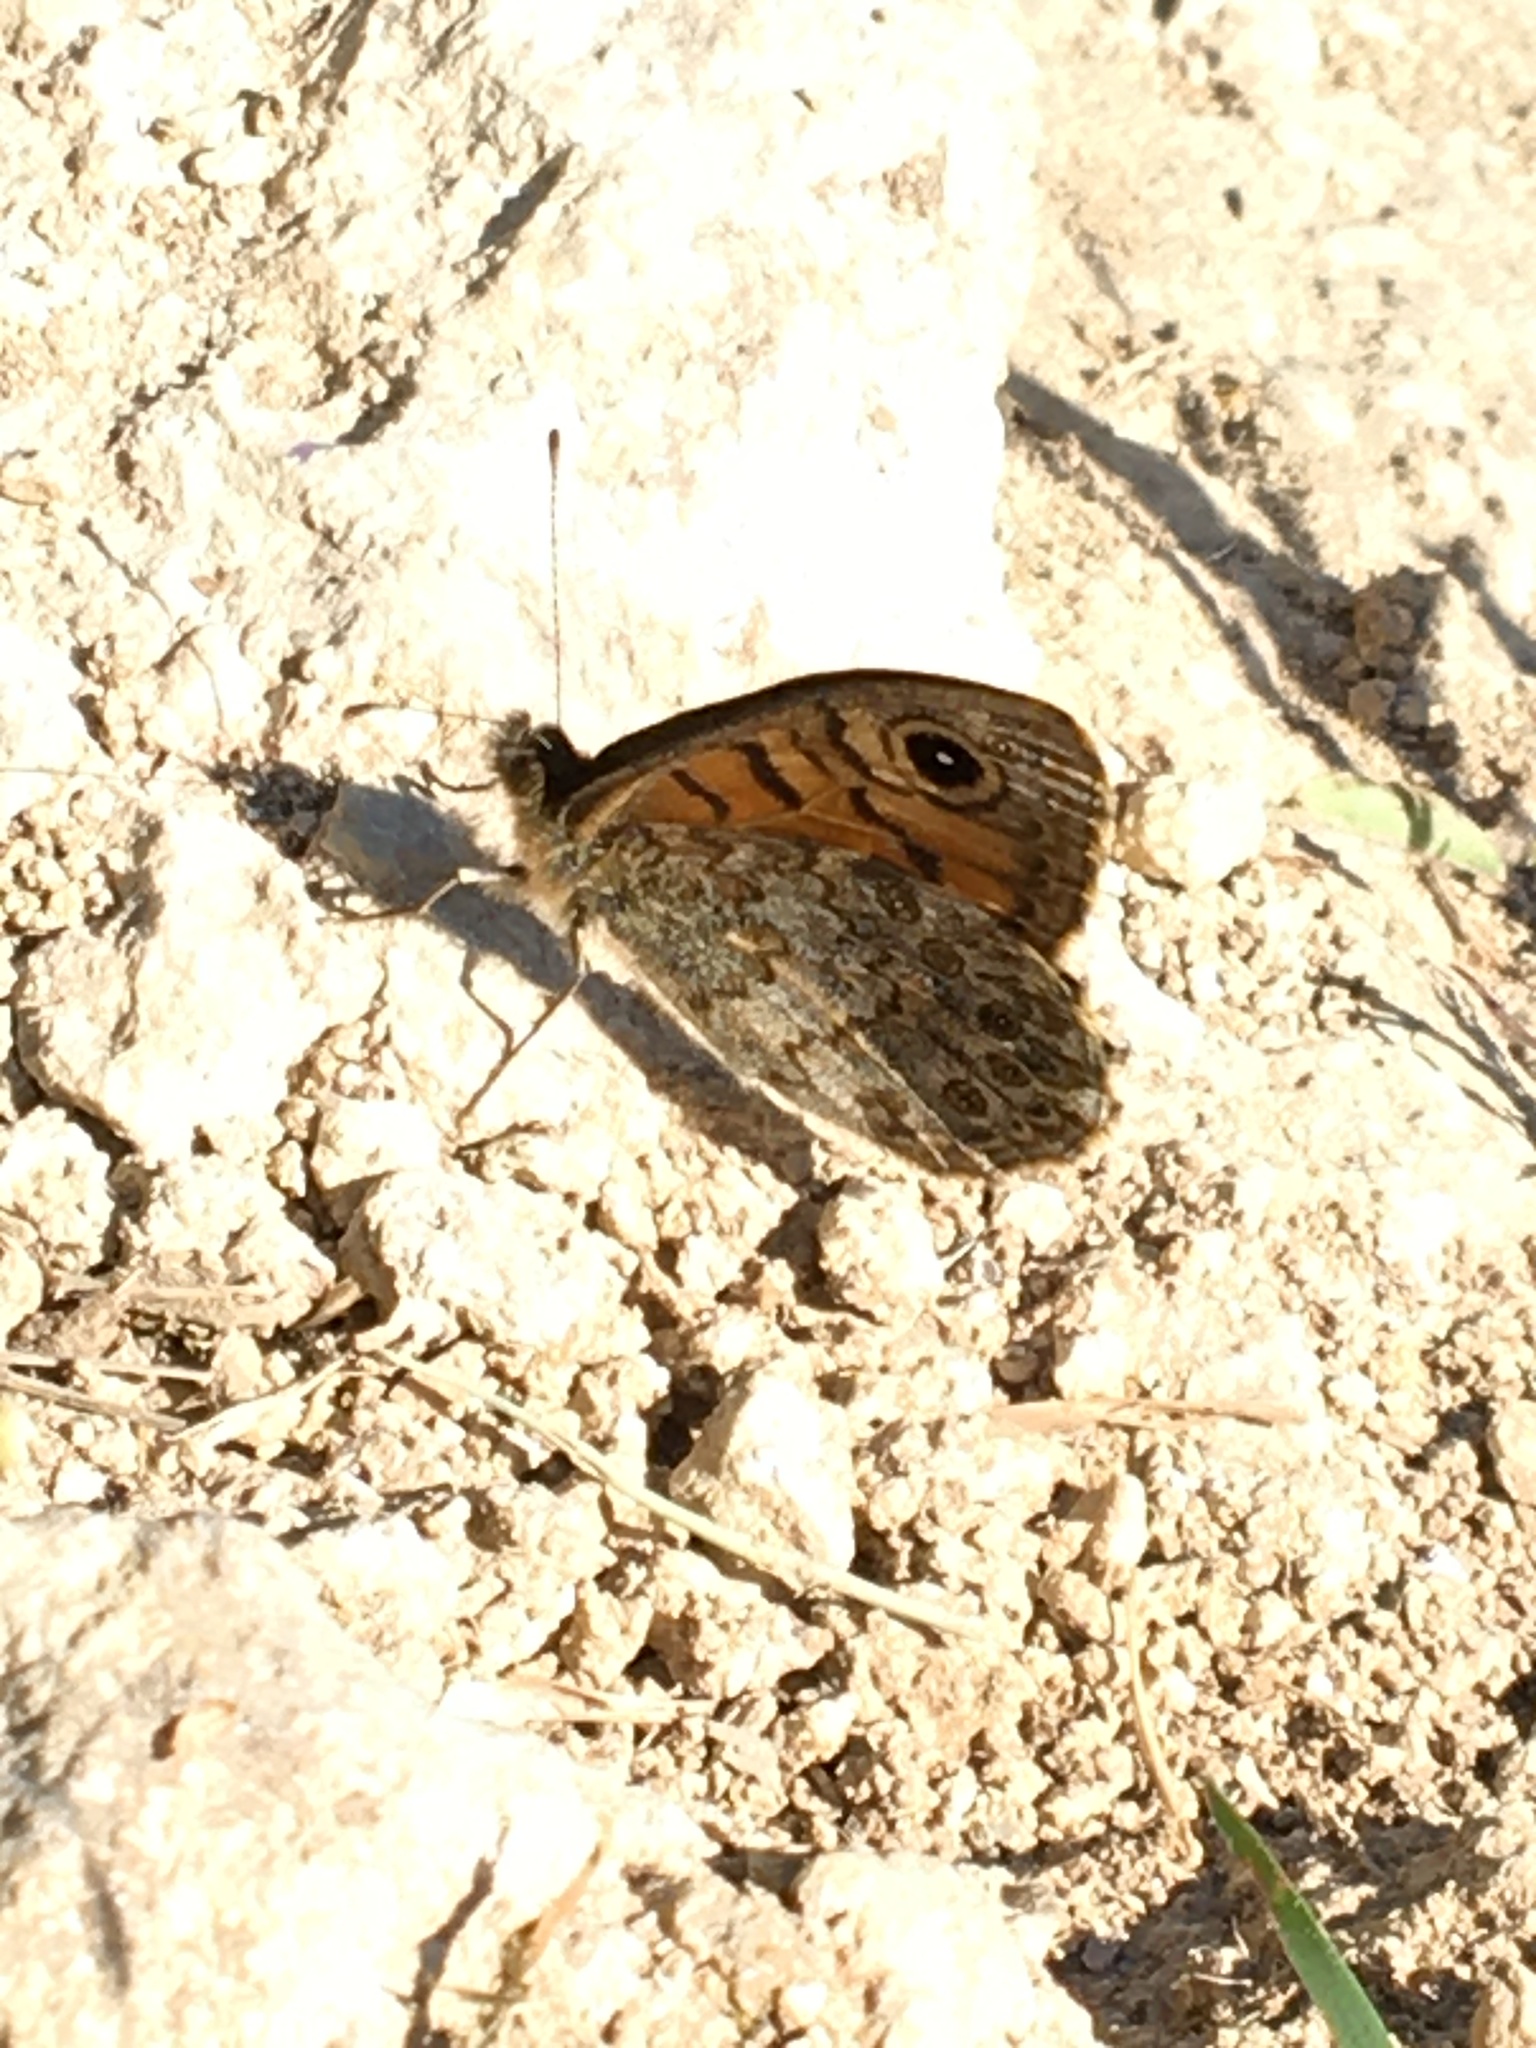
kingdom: Animalia
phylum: Arthropoda
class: Insecta
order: Lepidoptera
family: Nymphalidae
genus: Pararge
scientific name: Pararge Lasiommata megera
